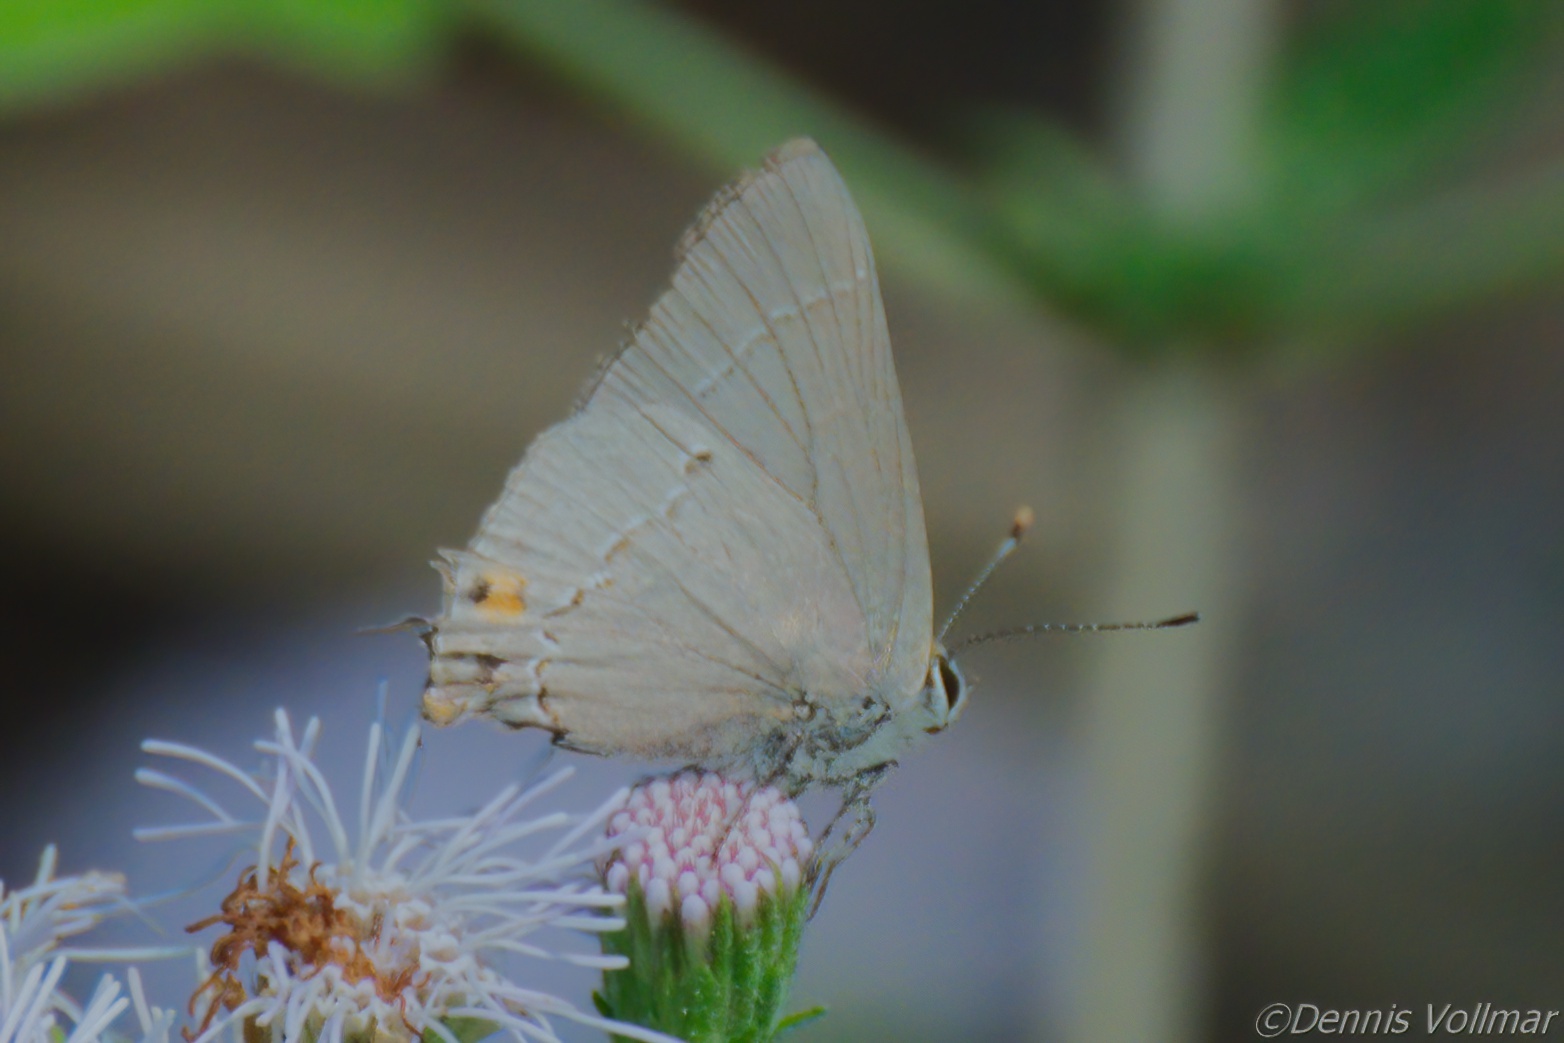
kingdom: Animalia
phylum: Arthropoda
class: Insecta
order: Lepidoptera
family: Lycaenidae
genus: Strymon
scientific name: Strymon melinus
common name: Gray hairstreak
